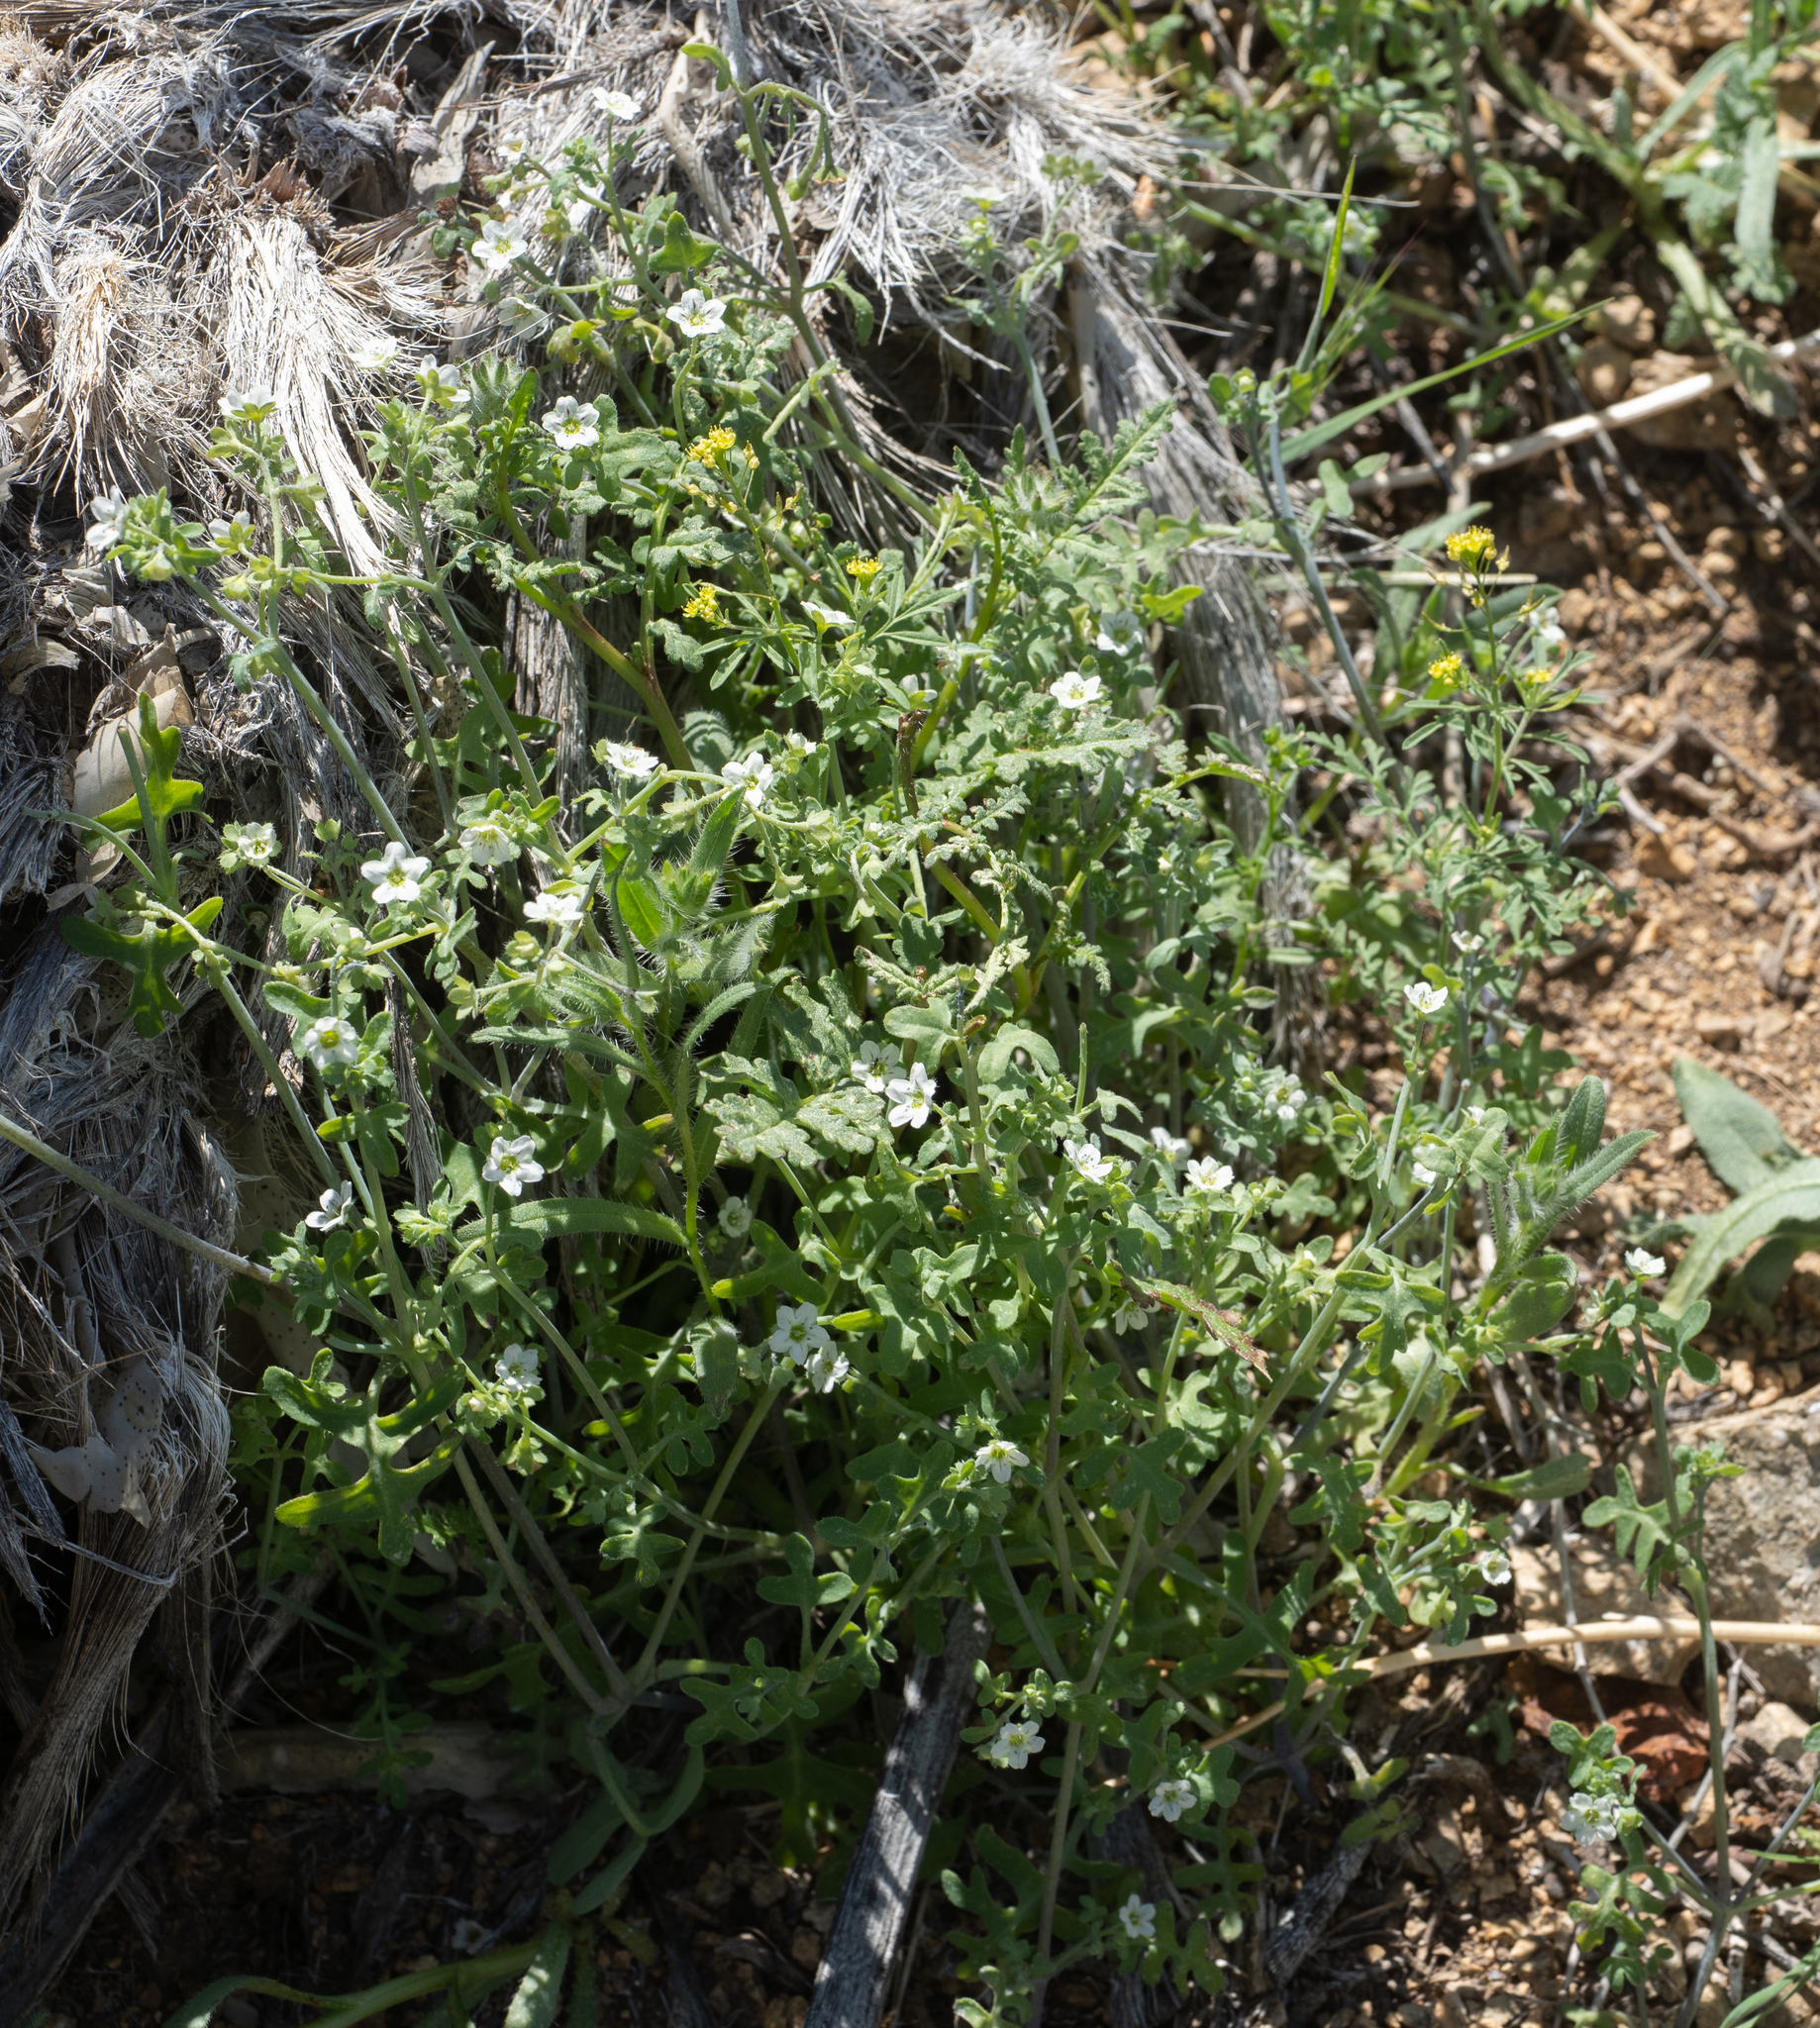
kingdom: Plantae
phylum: Tracheophyta
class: Magnoliopsida
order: Boraginales
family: Hydrophyllaceae
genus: Pholistoma
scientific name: Pholistoma membranaceum
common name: White fiesta-flower
